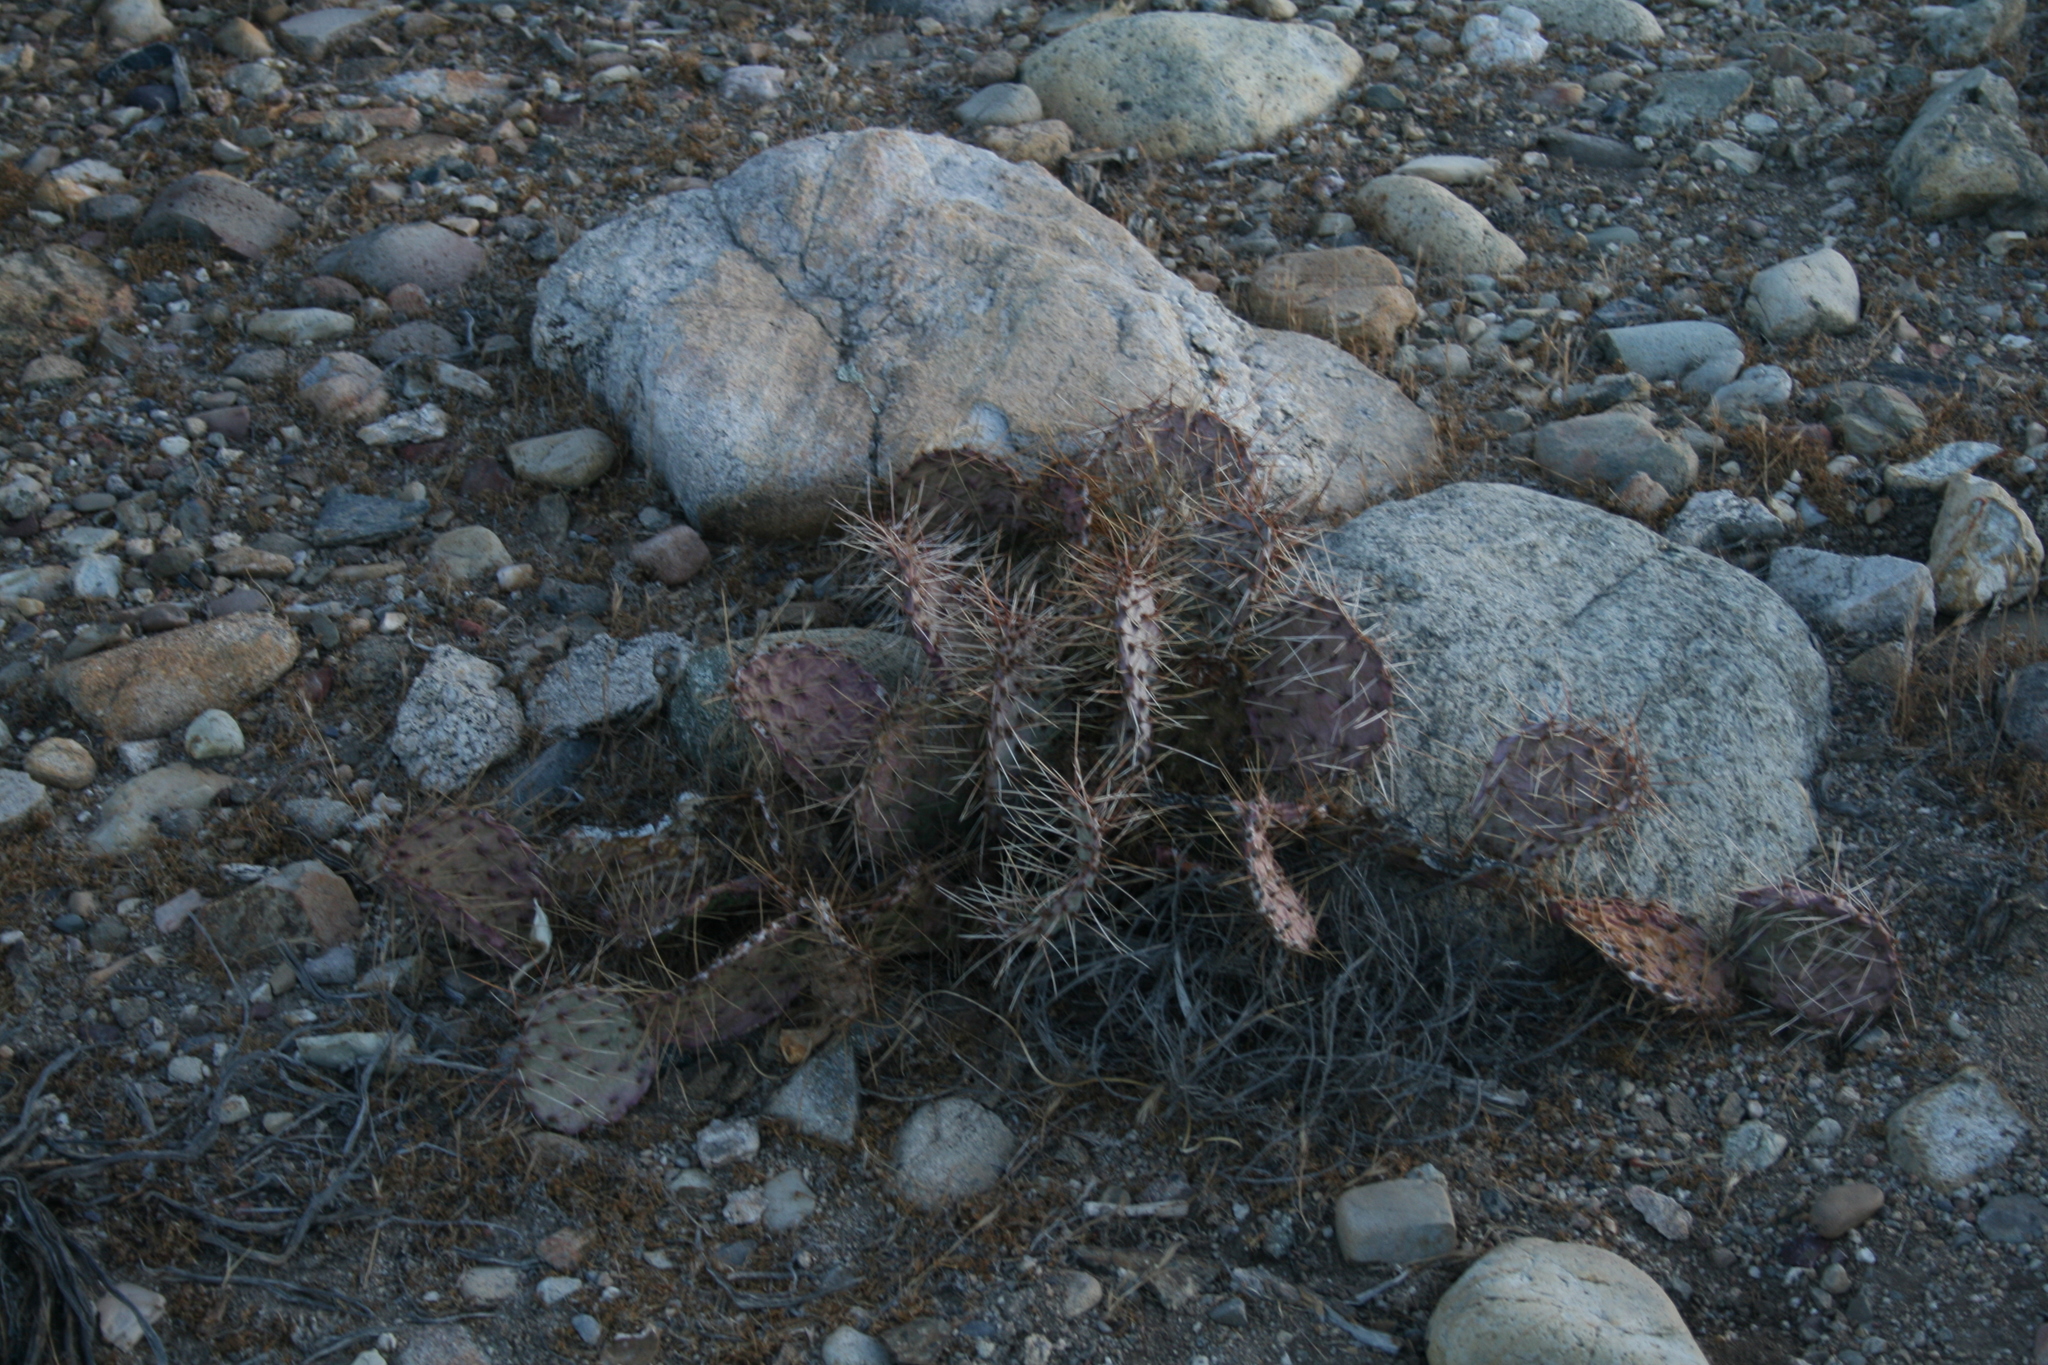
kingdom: Plantae
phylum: Tracheophyta
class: Magnoliopsida
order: Caryophyllales
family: Cactaceae
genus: Opuntia
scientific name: Opuntia phaeacantha
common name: New mexico prickly-pear
